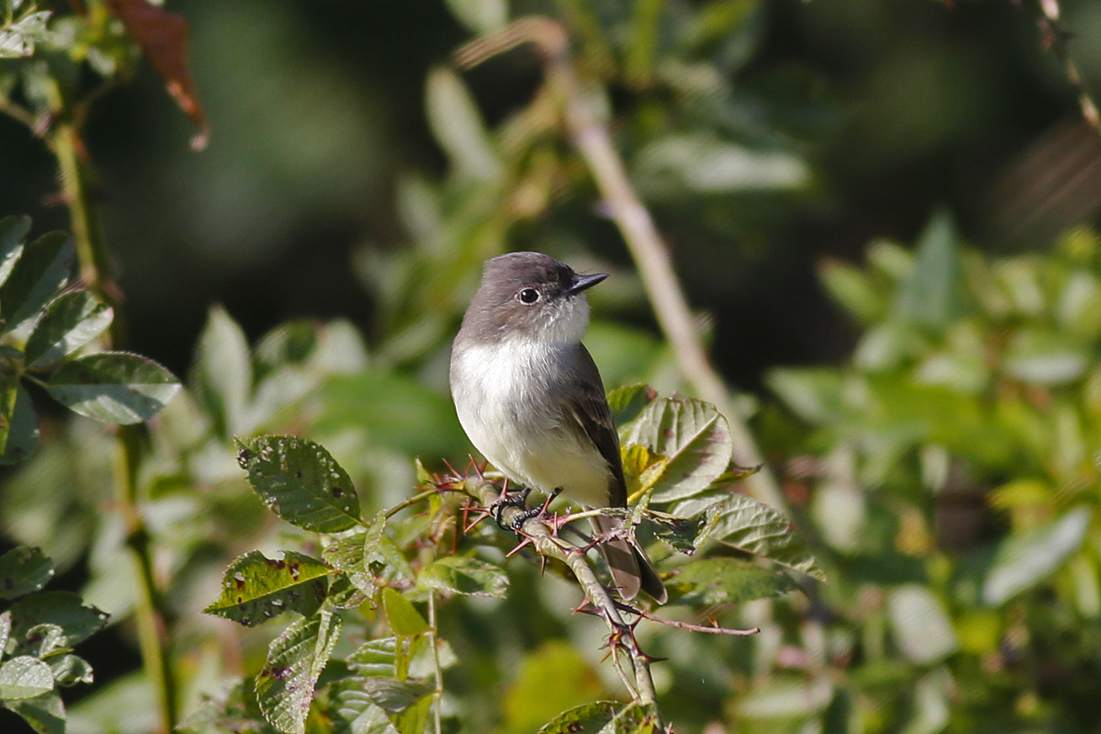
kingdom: Animalia
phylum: Chordata
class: Aves
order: Passeriformes
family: Tyrannidae
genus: Sayornis
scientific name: Sayornis phoebe
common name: Eastern phoebe
